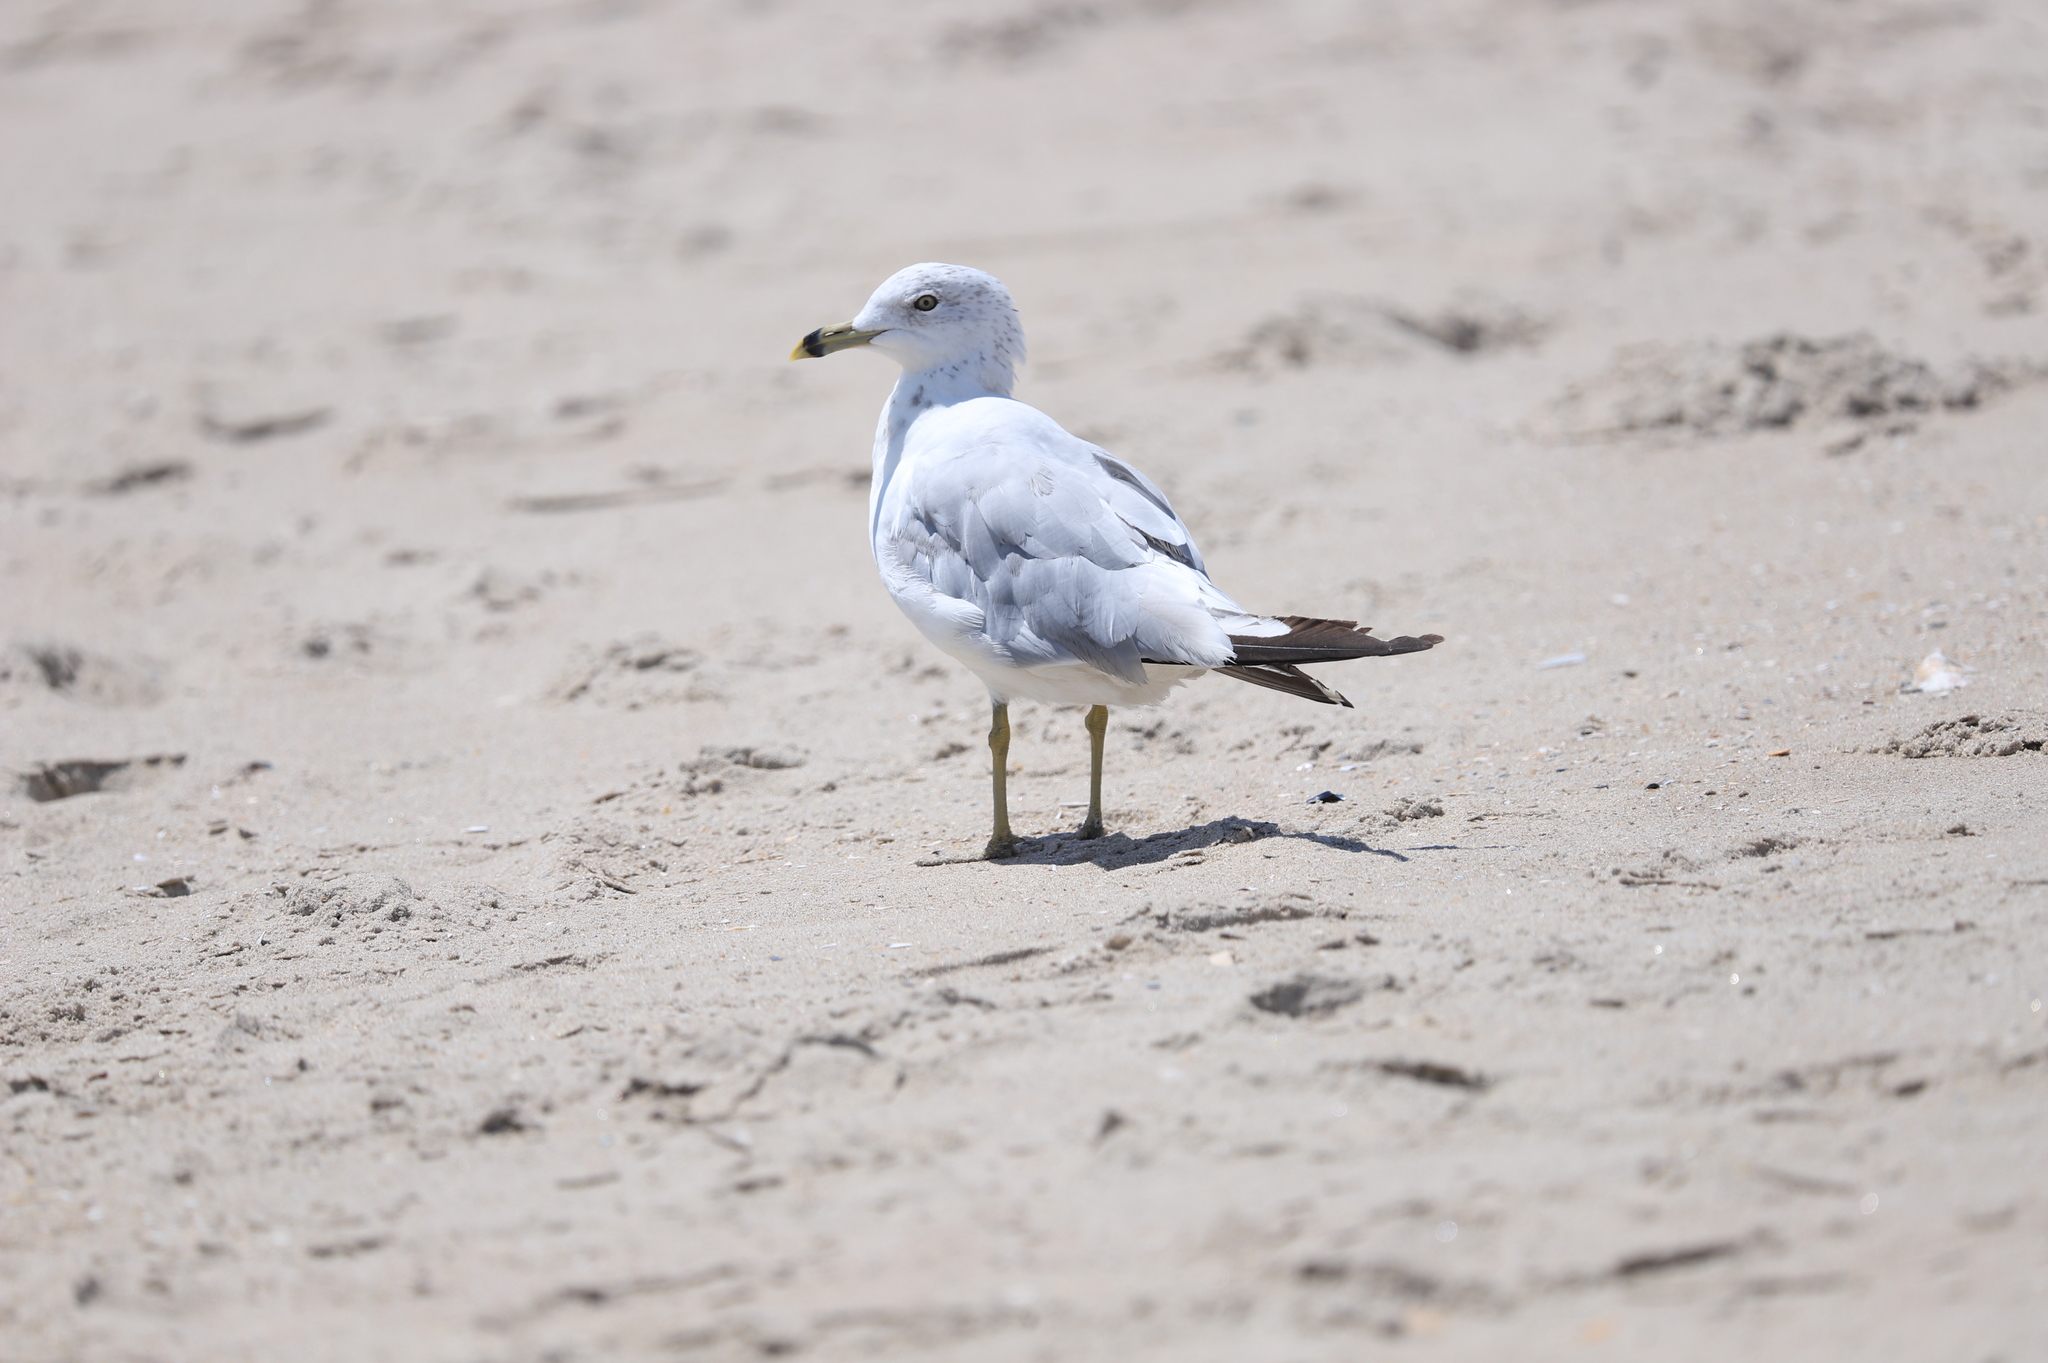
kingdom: Animalia
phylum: Chordata
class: Aves
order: Charadriiformes
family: Laridae
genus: Larus
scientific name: Larus delawarensis
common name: Ring-billed gull
